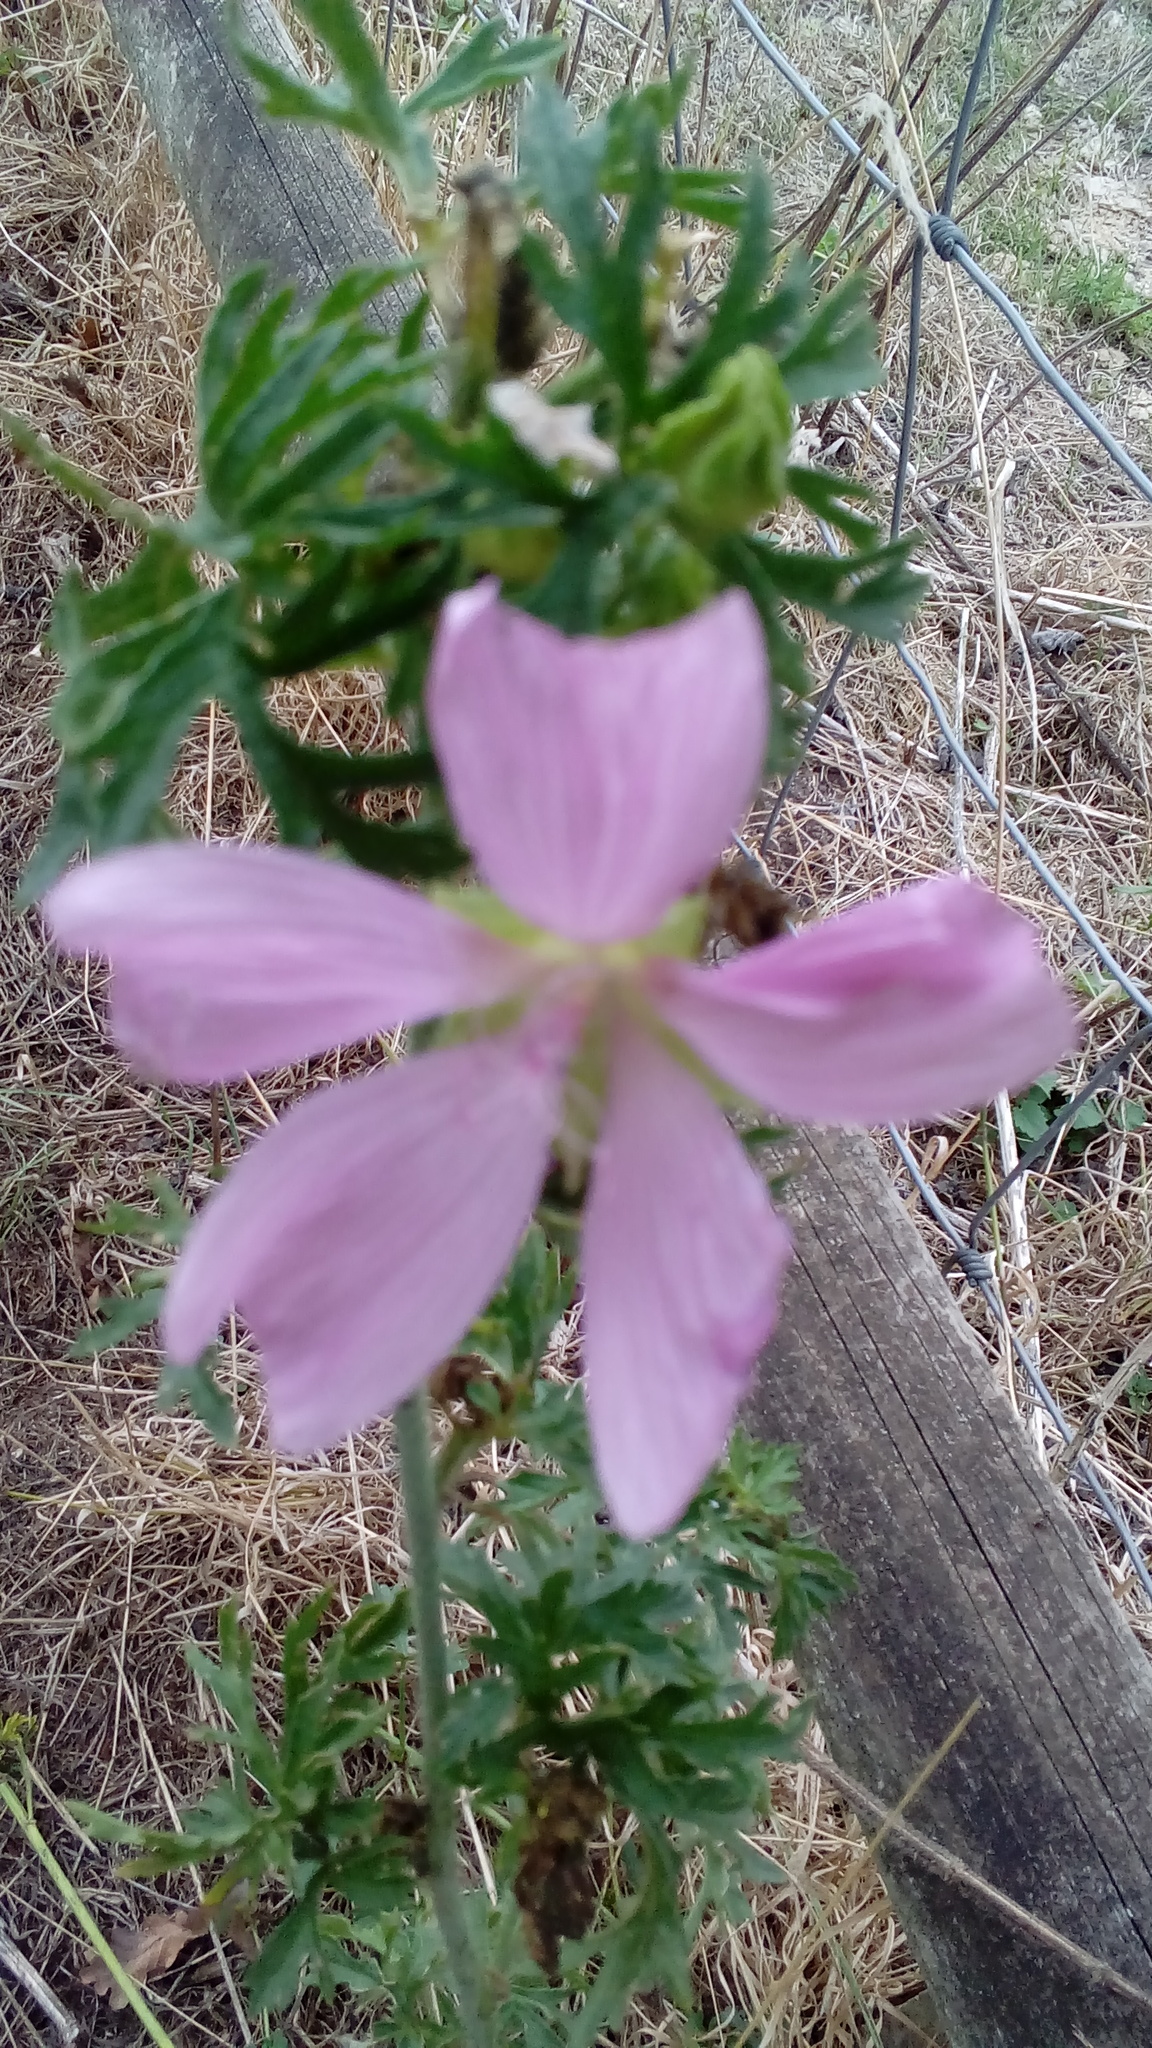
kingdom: Plantae
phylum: Tracheophyta
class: Magnoliopsida
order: Malvales
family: Malvaceae
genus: Malva
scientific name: Malva moschata
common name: Musk mallow
